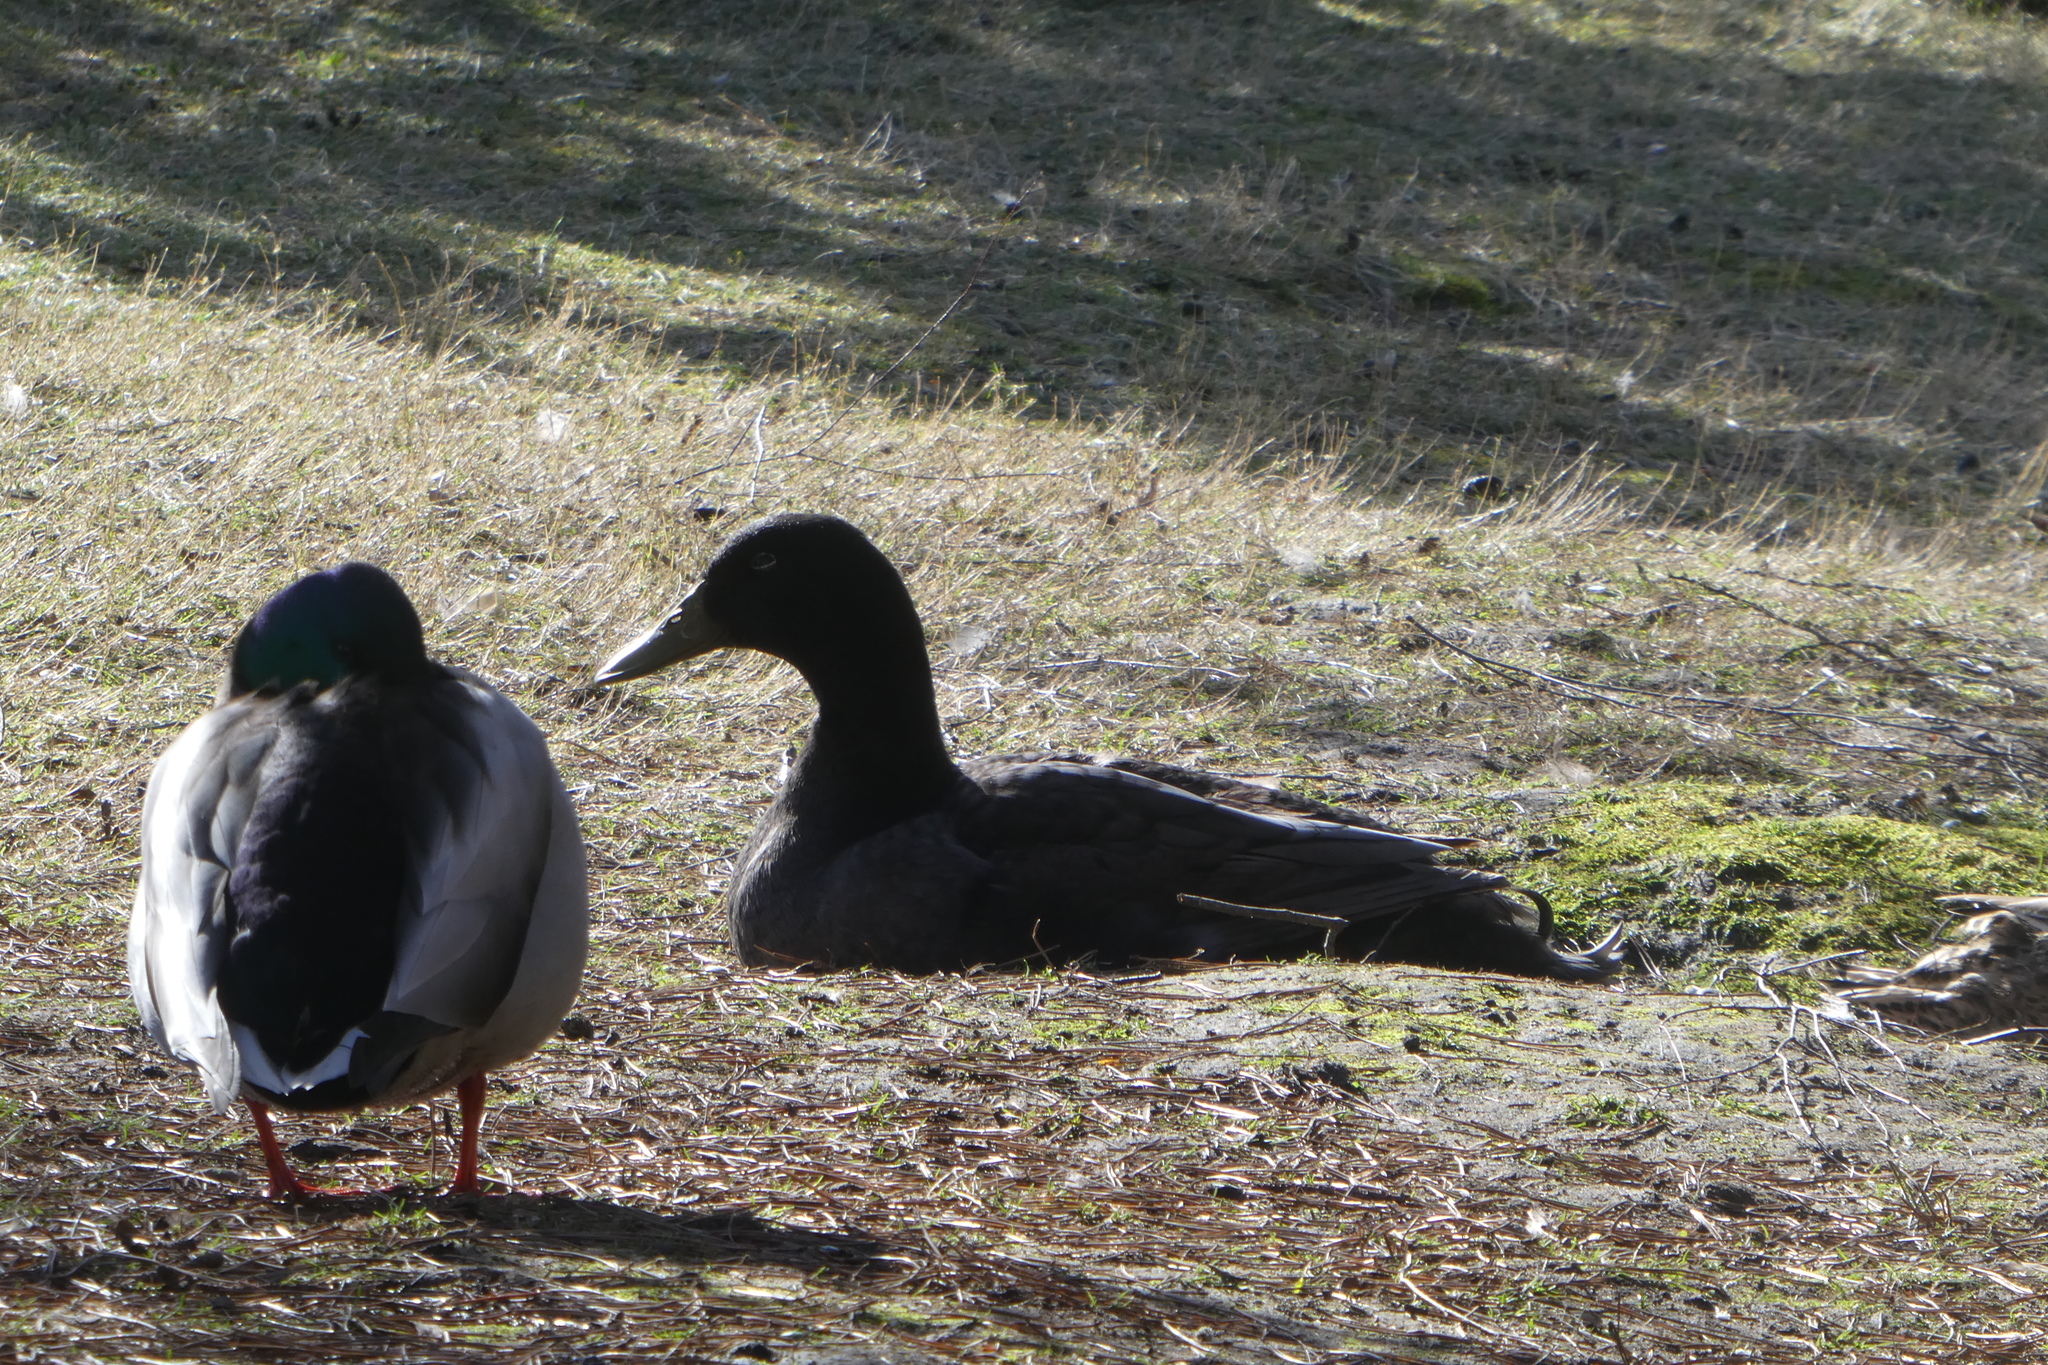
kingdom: Animalia
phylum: Chordata
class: Aves
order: Anseriformes
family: Anatidae
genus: Anas
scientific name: Anas platyrhynchos
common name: Mallard
